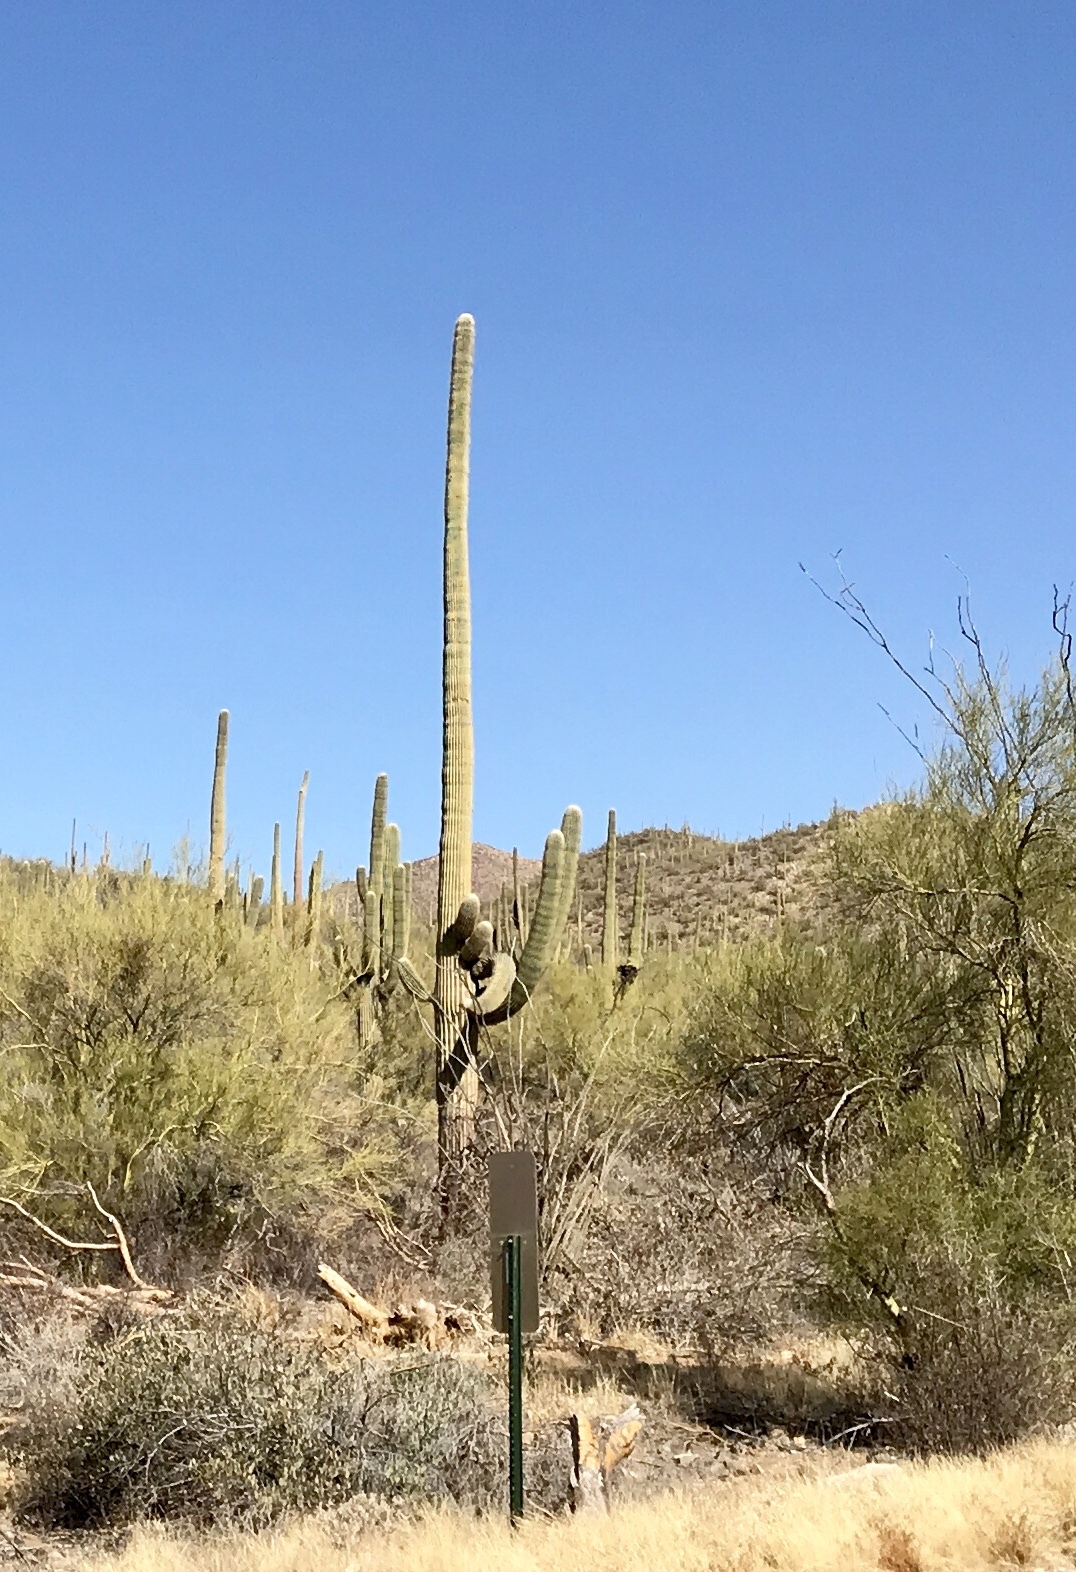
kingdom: Plantae
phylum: Tracheophyta
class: Magnoliopsida
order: Caryophyllales
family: Cactaceae
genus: Carnegiea
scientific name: Carnegiea gigantea
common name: Saguaro
